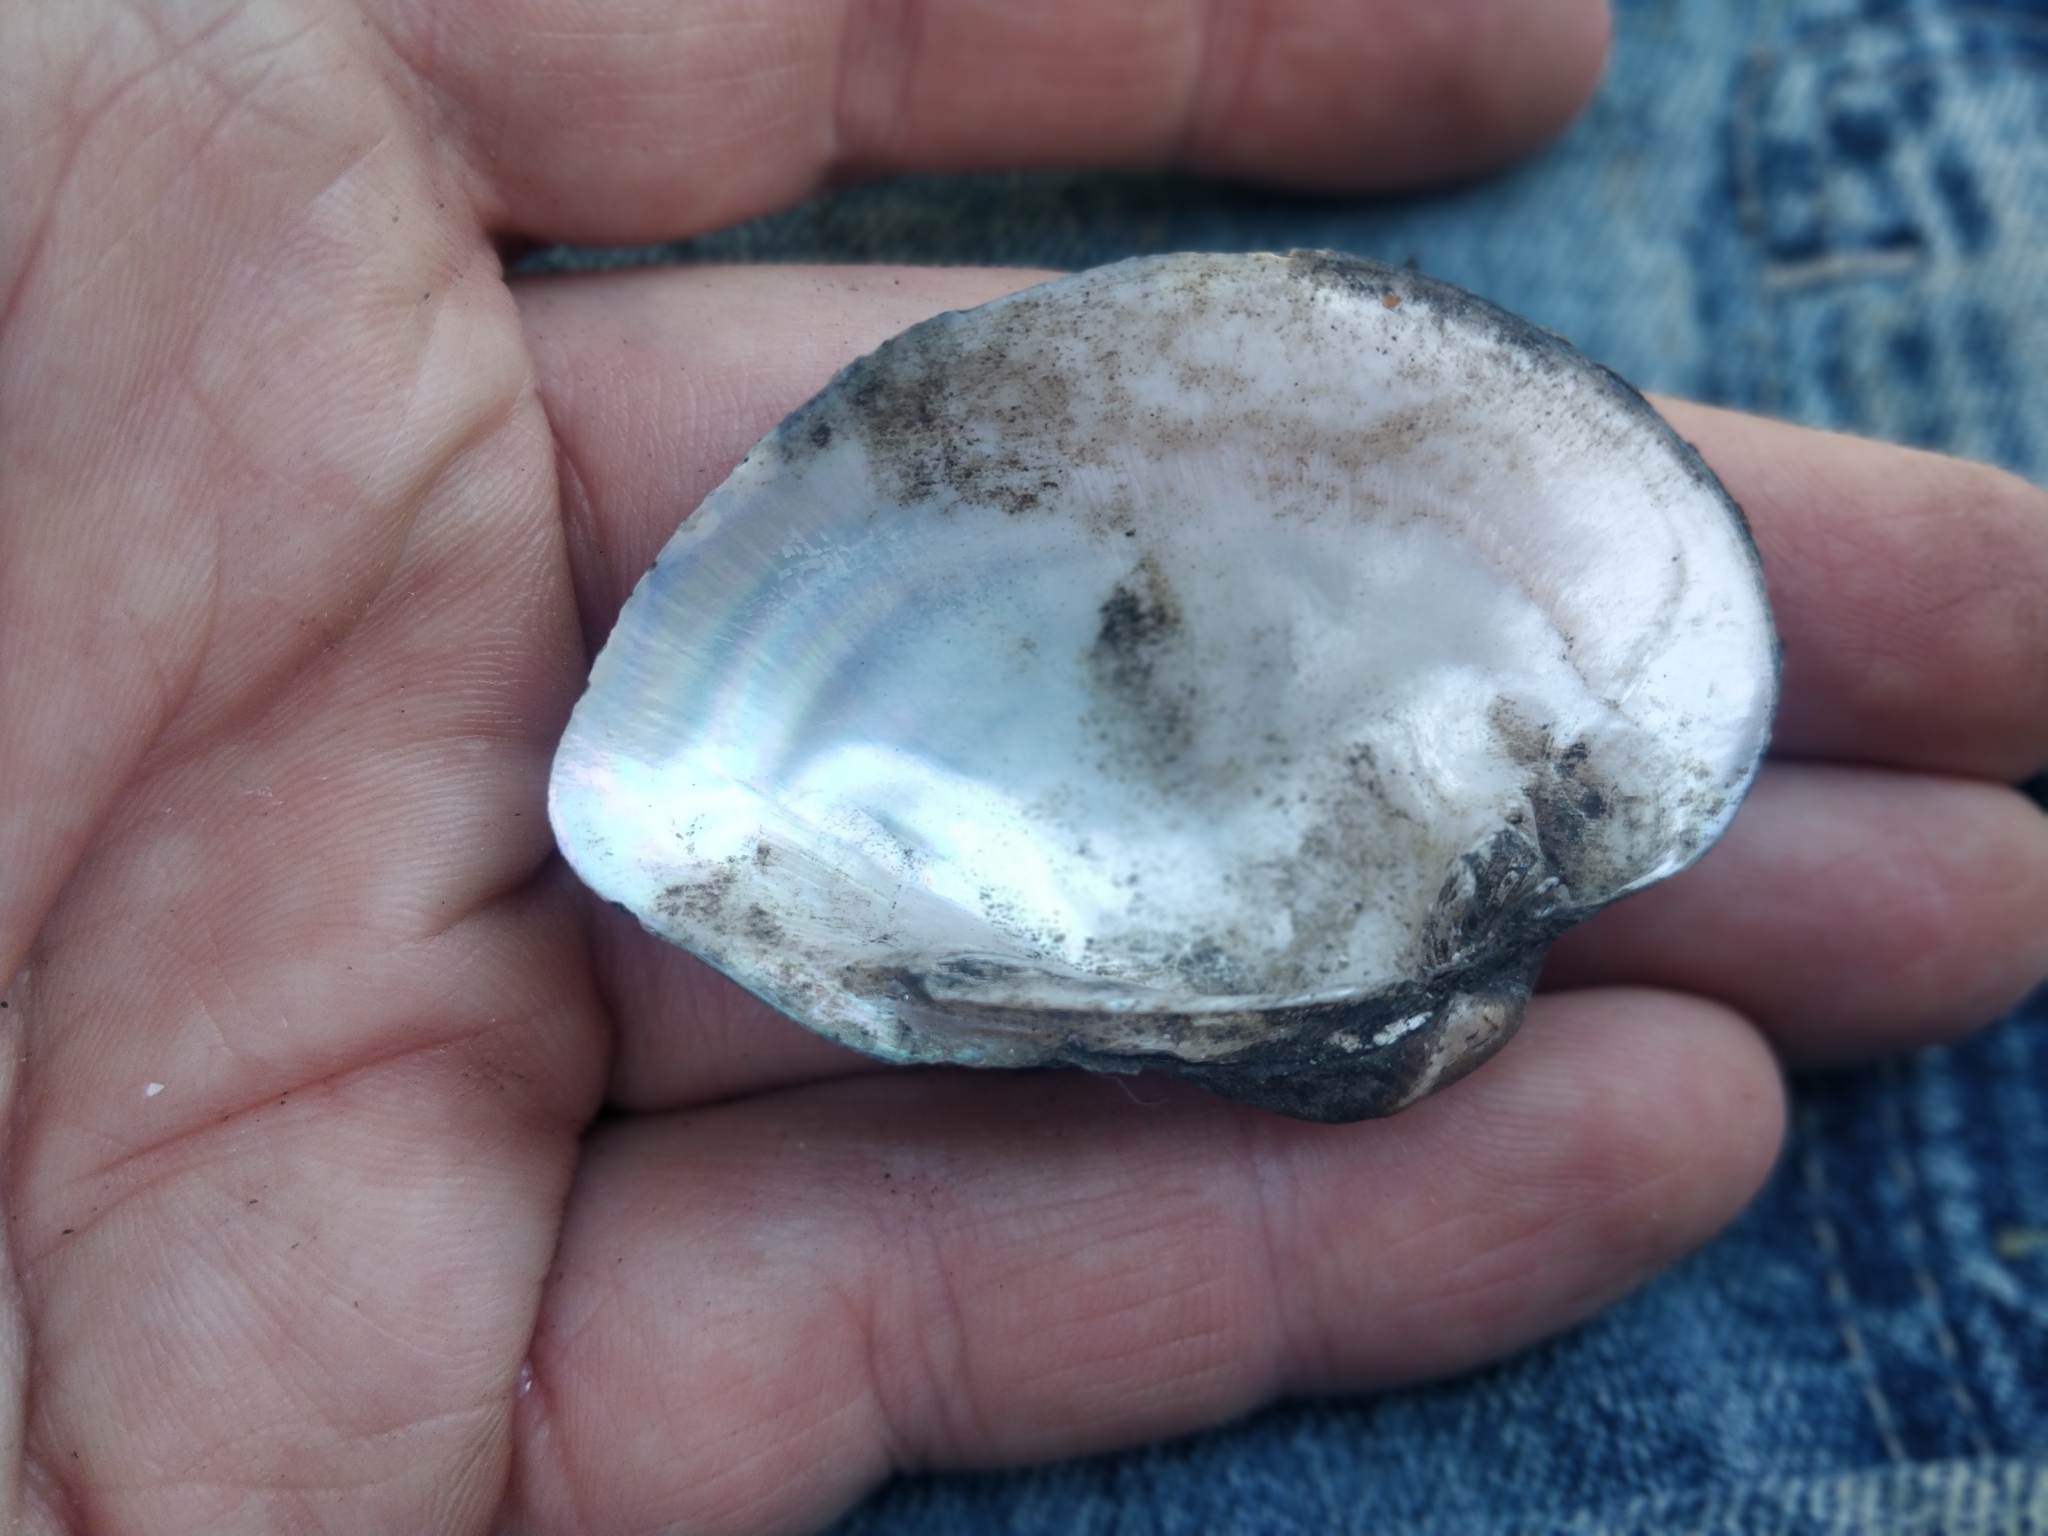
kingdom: Animalia
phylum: Mollusca
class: Bivalvia
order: Unionida
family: Unionidae
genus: Truncilla
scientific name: Truncilla truncata
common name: Deertoe
